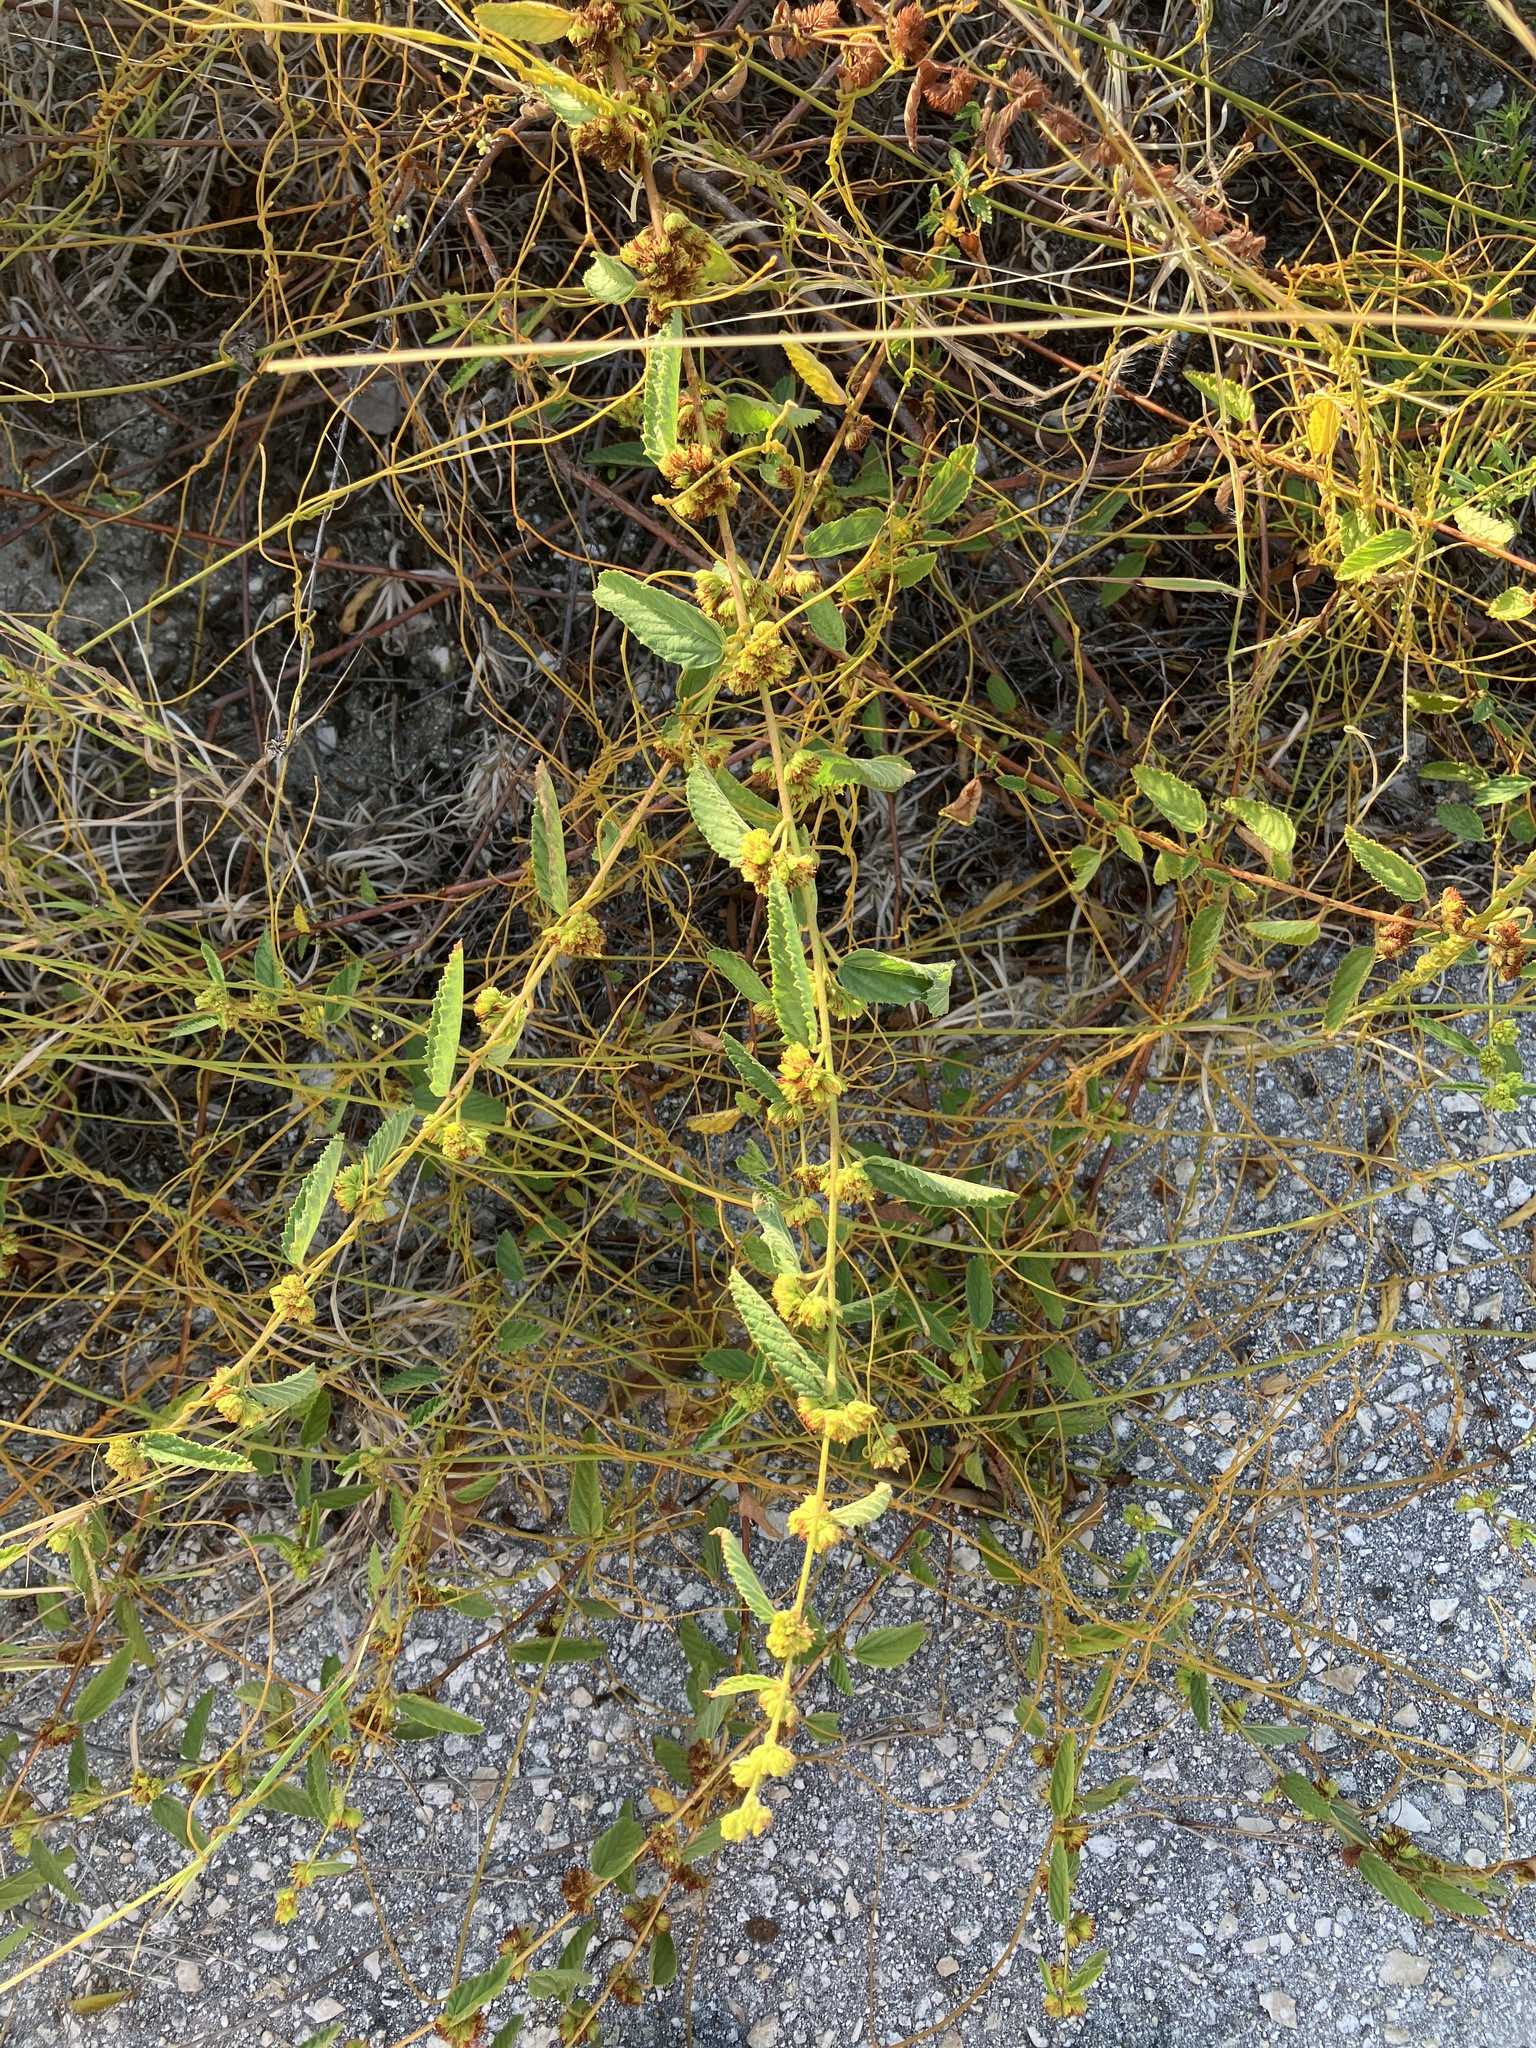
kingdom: Plantae
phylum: Tracheophyta
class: Magnoliopsida
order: Malvales
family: Malvaceae
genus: Waltheria
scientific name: Waltheria indica
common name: Leather-coat
